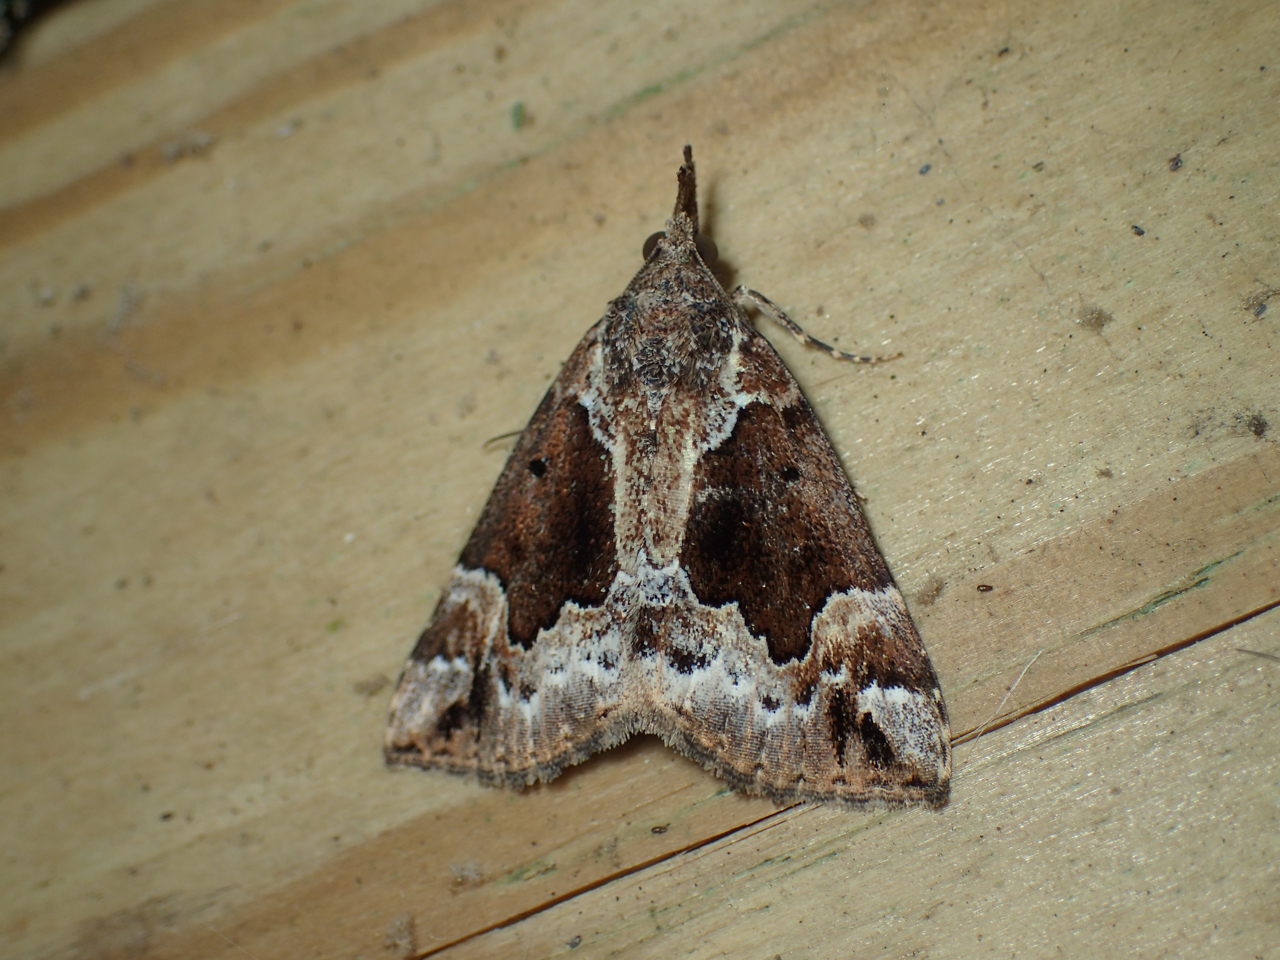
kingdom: Animalia
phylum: Arthropoda
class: Insecta
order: Lepidoptera
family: Erebidae
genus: Hypena
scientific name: Hypena palparia
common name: Mottled bomolocha moth
